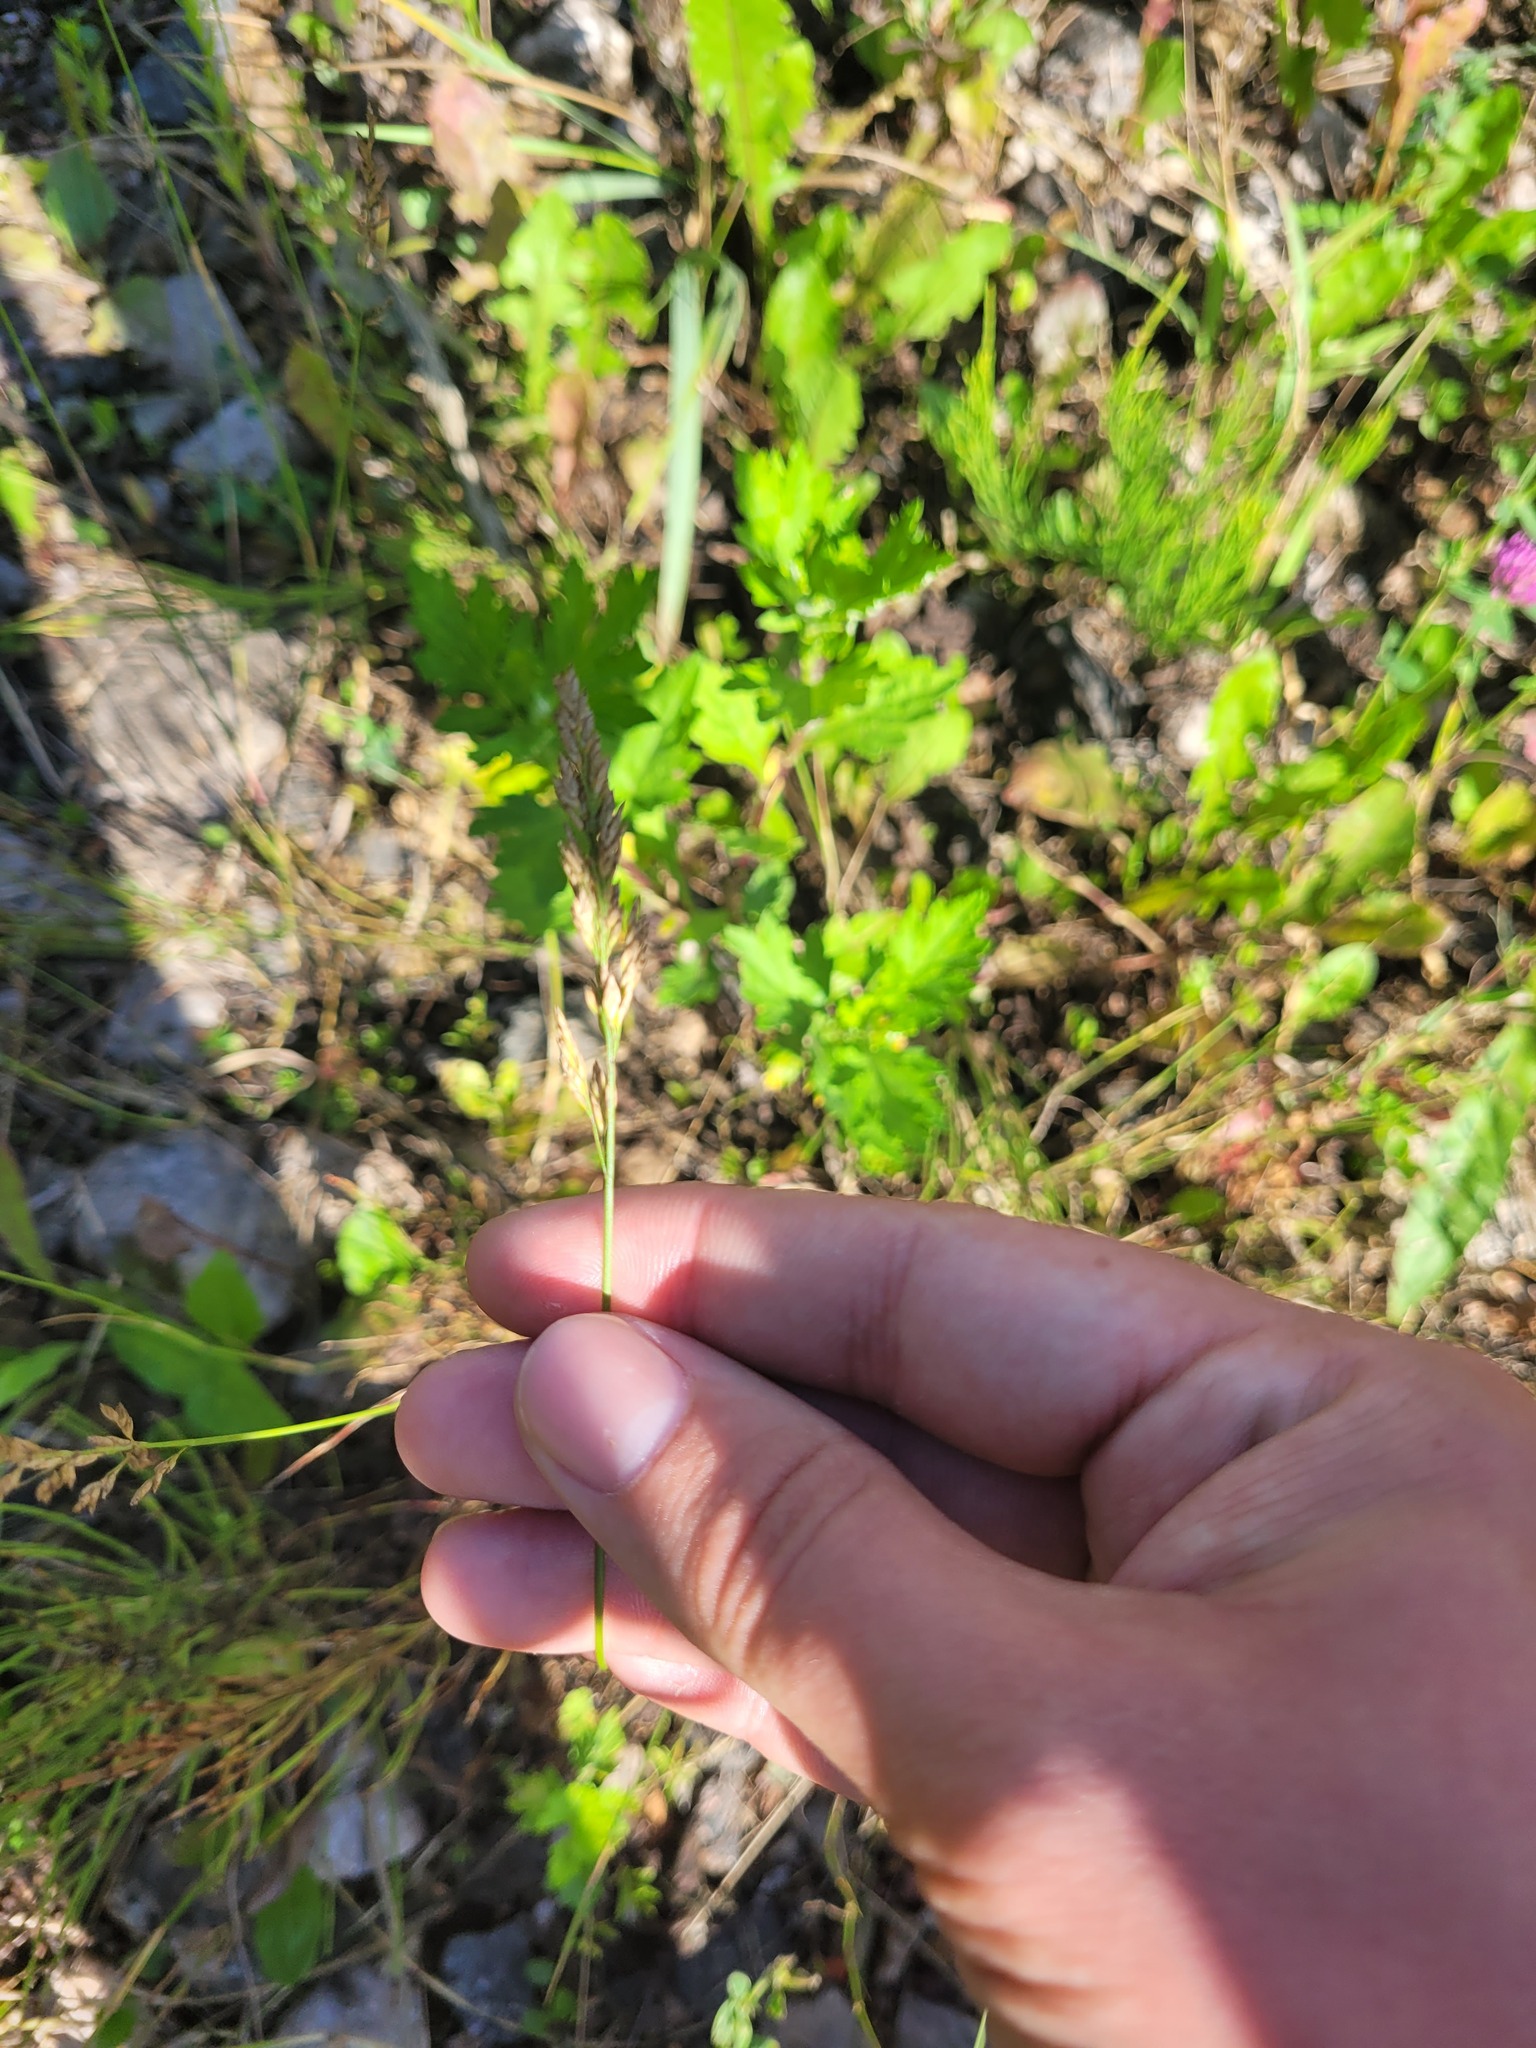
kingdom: Plantae
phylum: Tracheophyta
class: Liliopsida
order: Poales
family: Poaceae
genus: Poa
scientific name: Poa compressa
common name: Canada bluegrass
